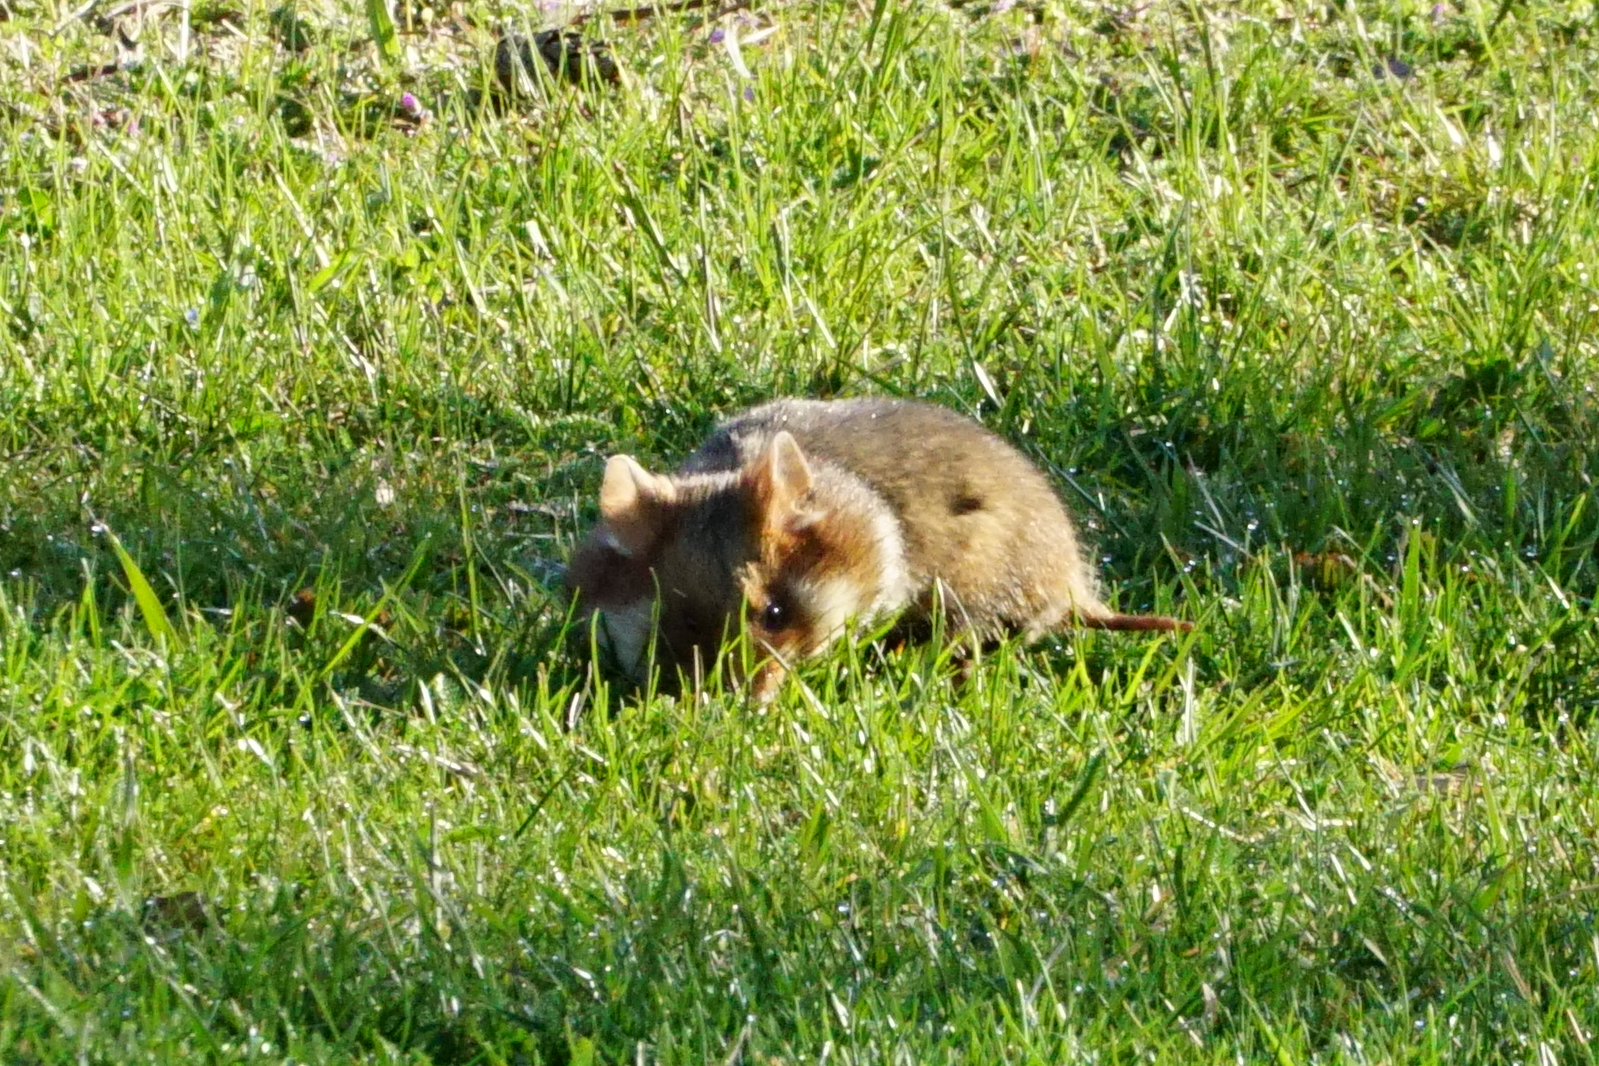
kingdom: Animalia
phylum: Chordata
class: Mammalia
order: Rodentia
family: Cricetidae
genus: Cricetus
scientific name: Cricetus cricetus
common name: Common hamster
